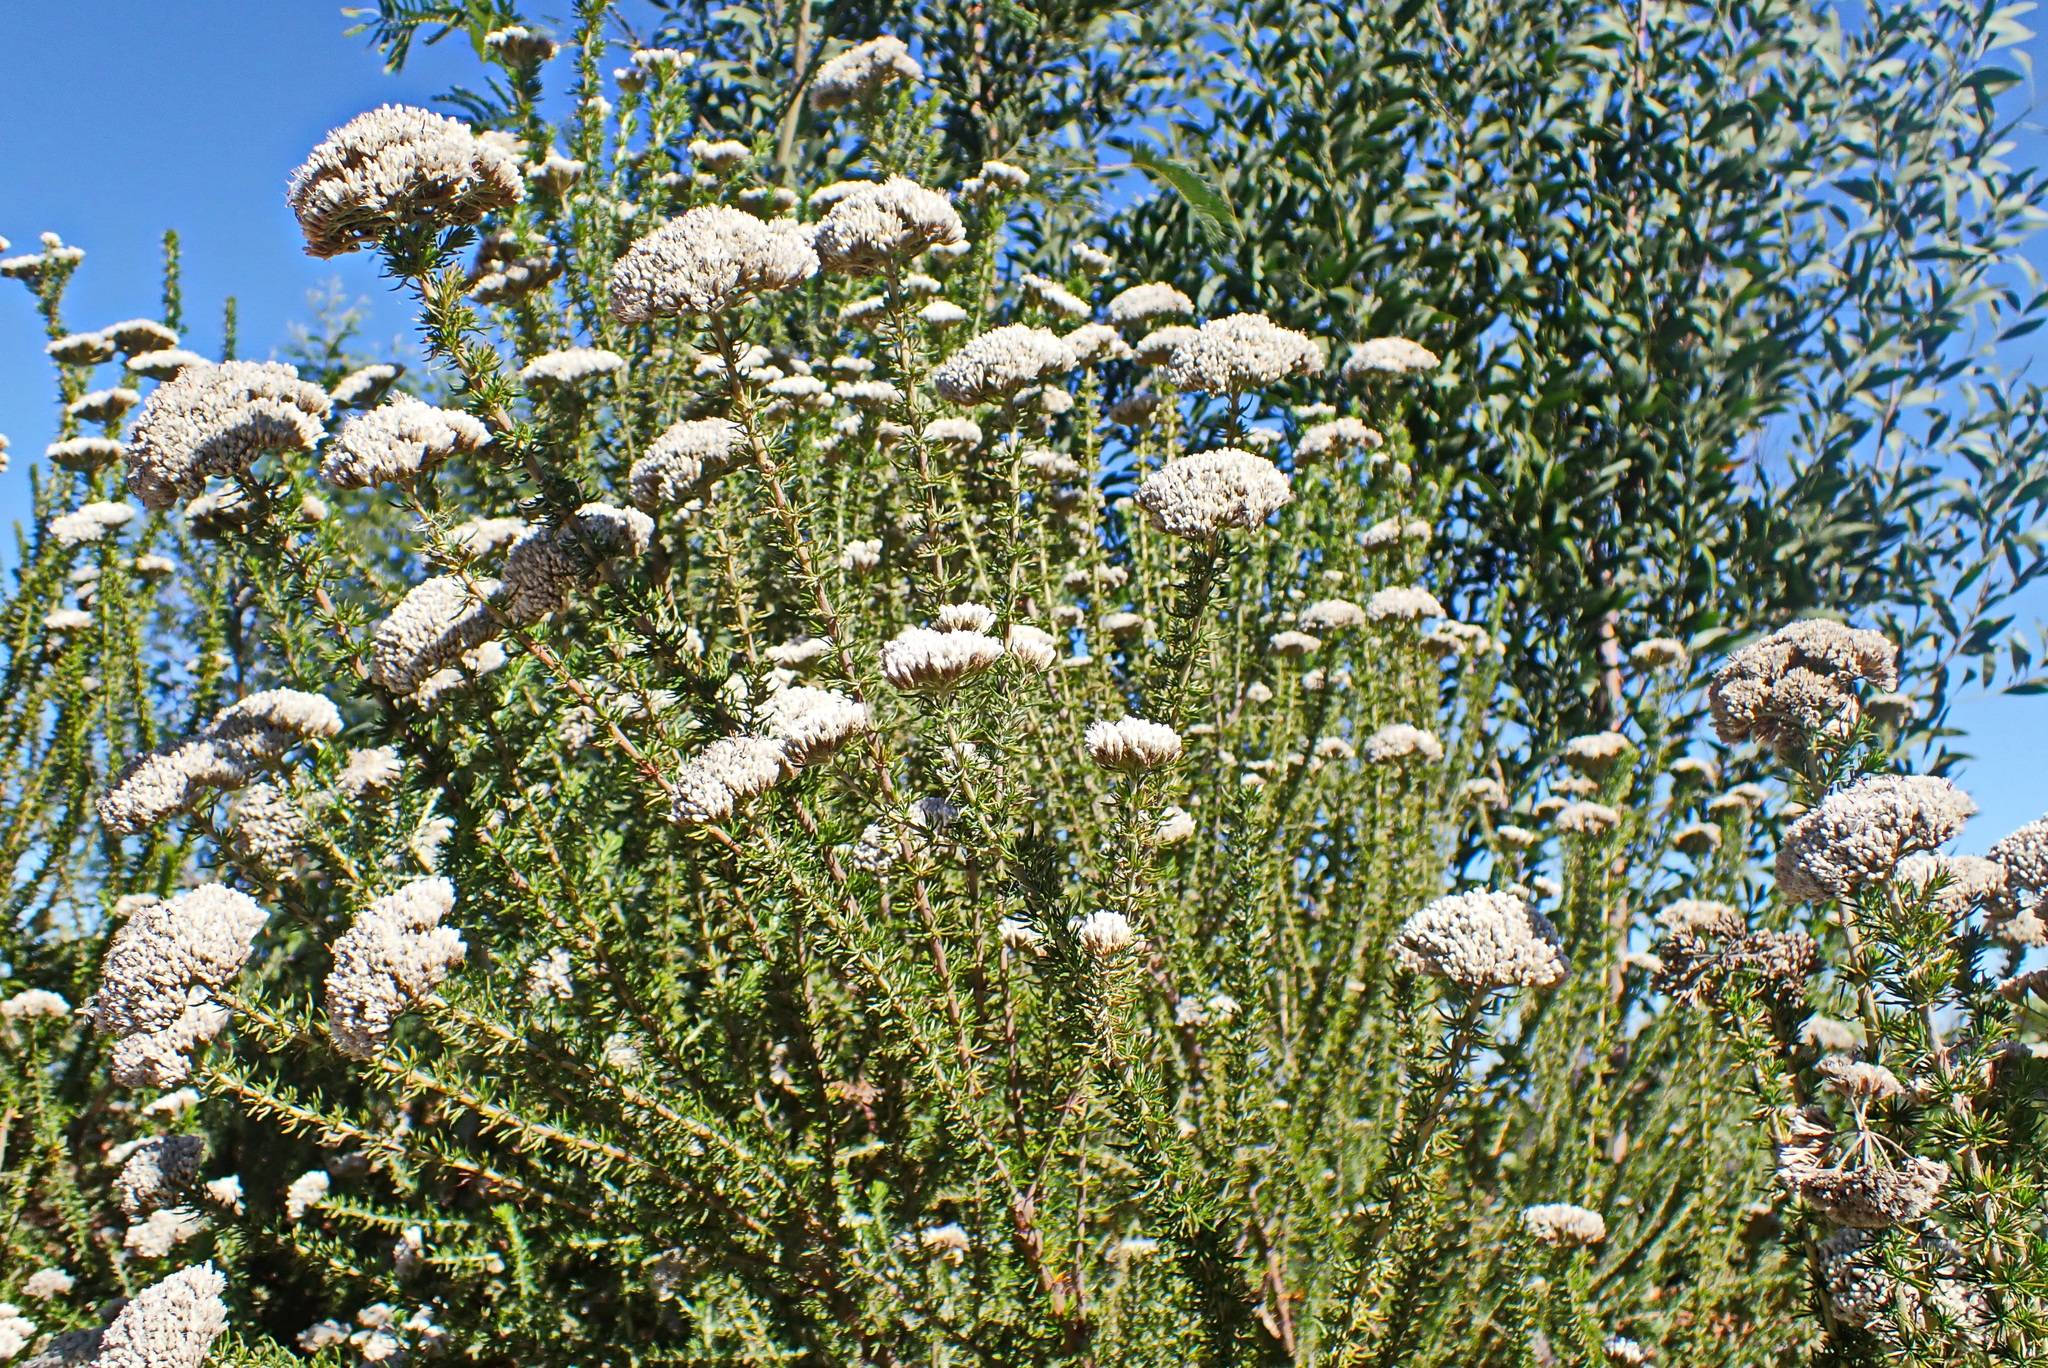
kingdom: Plantae
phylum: Tracheophyta
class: Magnoliopsida
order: Asterales
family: Asteraceae
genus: Metalasia
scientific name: Metalasia trivialis
